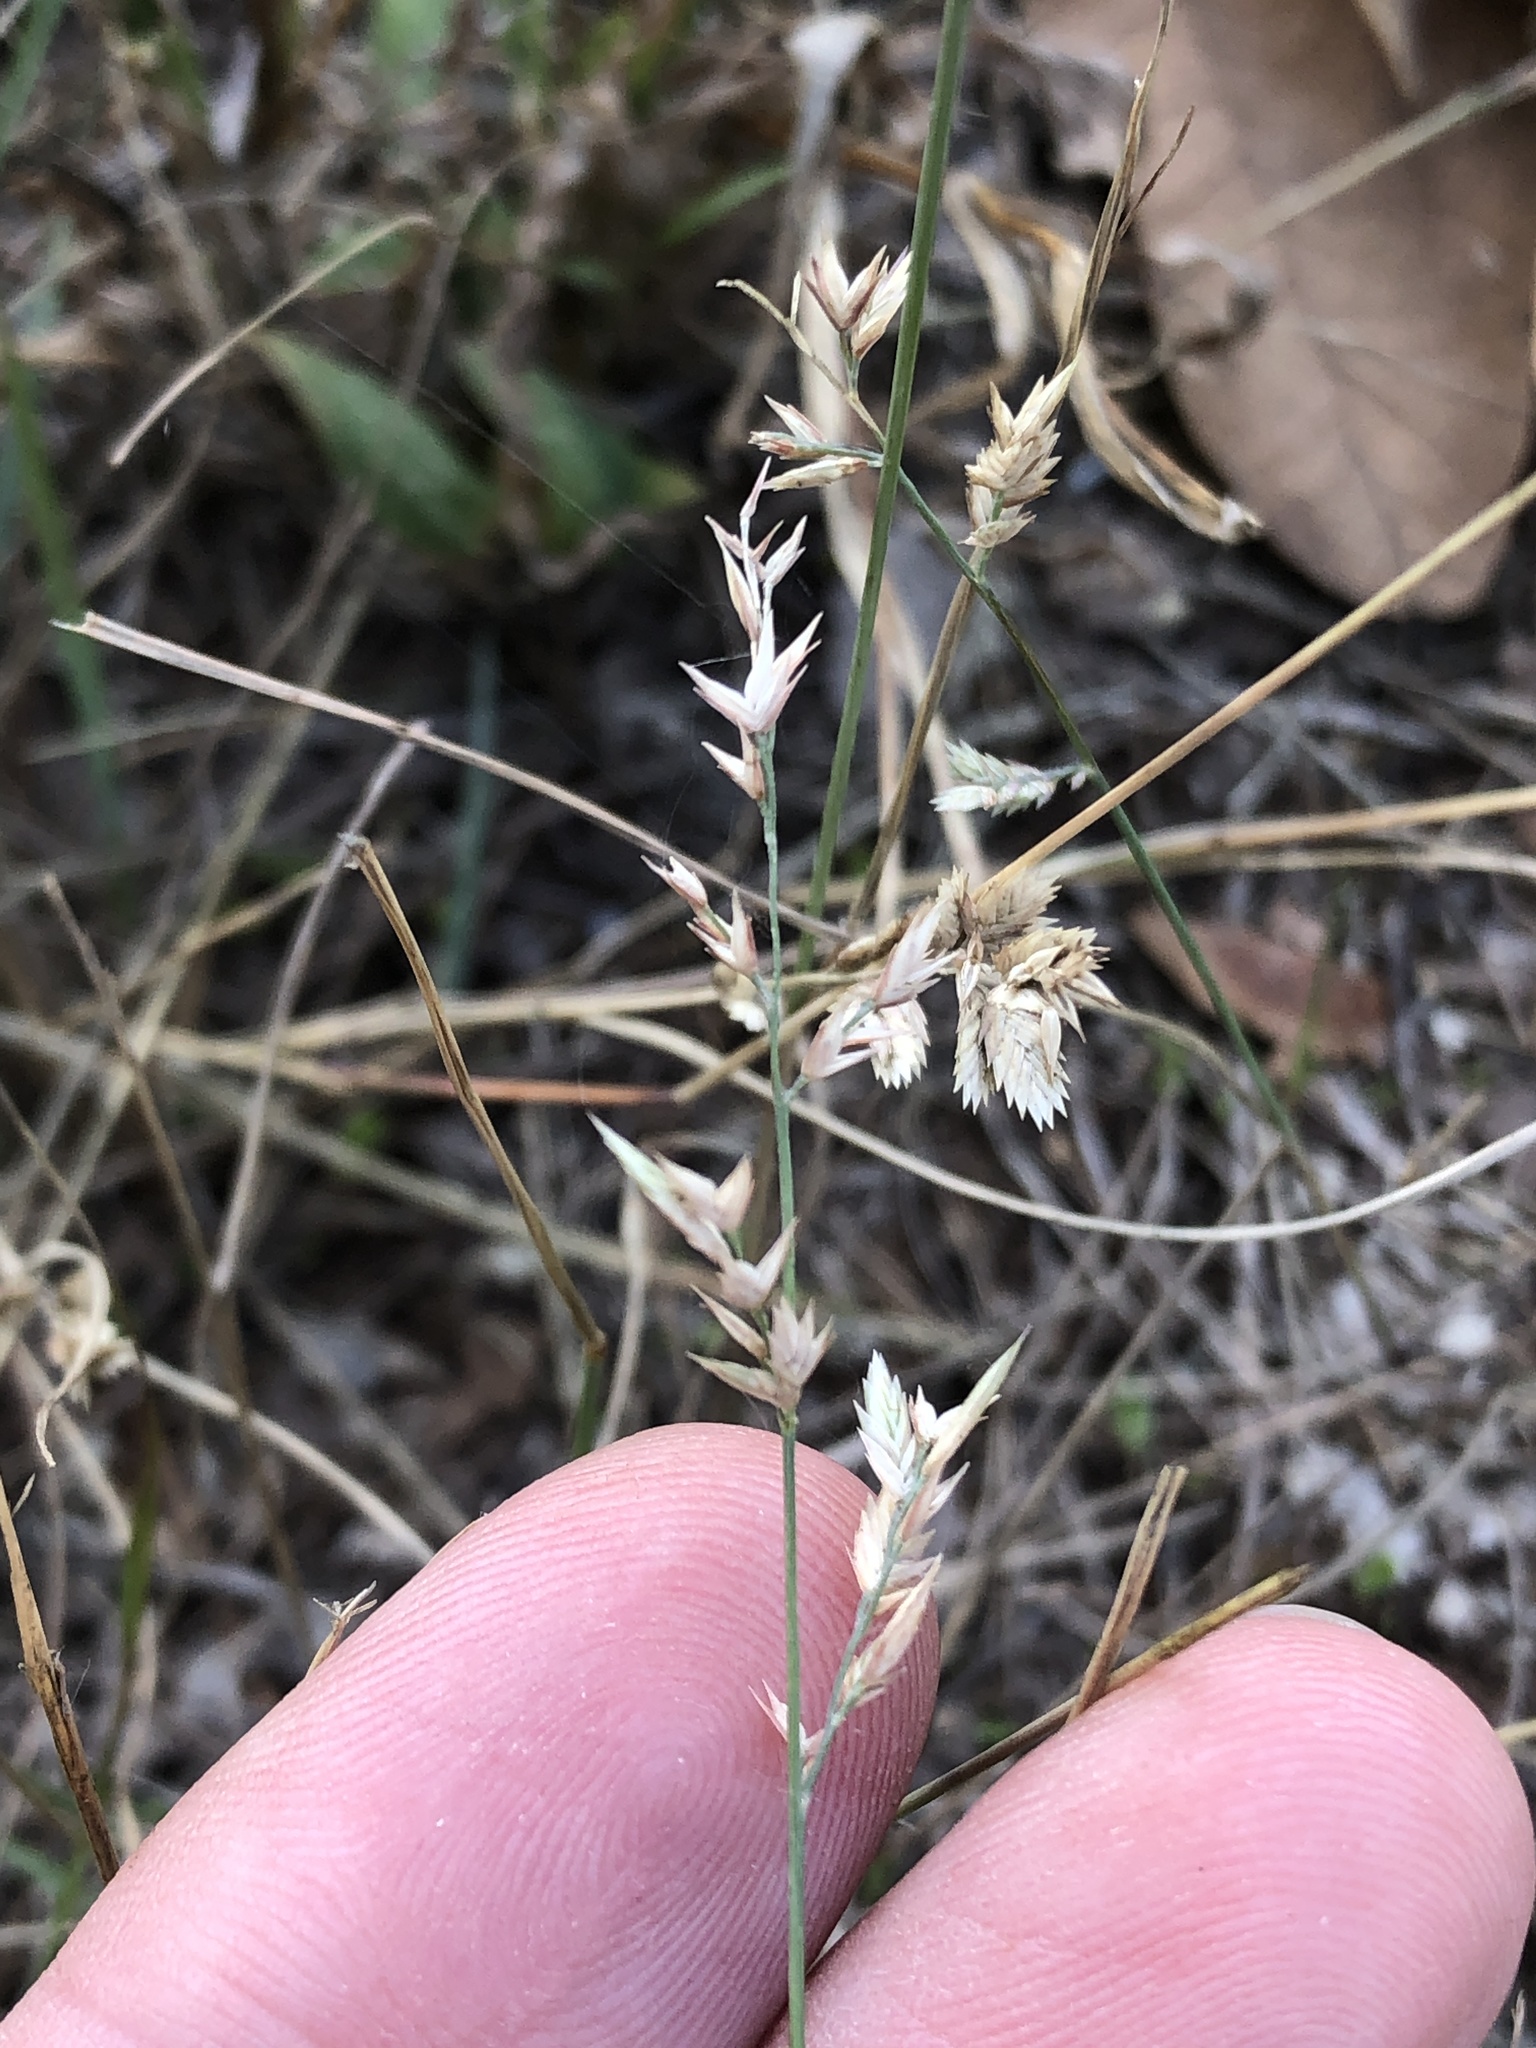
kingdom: Plantae
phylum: Tracheophyta
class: Liliopsida
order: Poales
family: Poaceae
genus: Eragrostis
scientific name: Eragrostis secundiflora
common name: Red love grass
